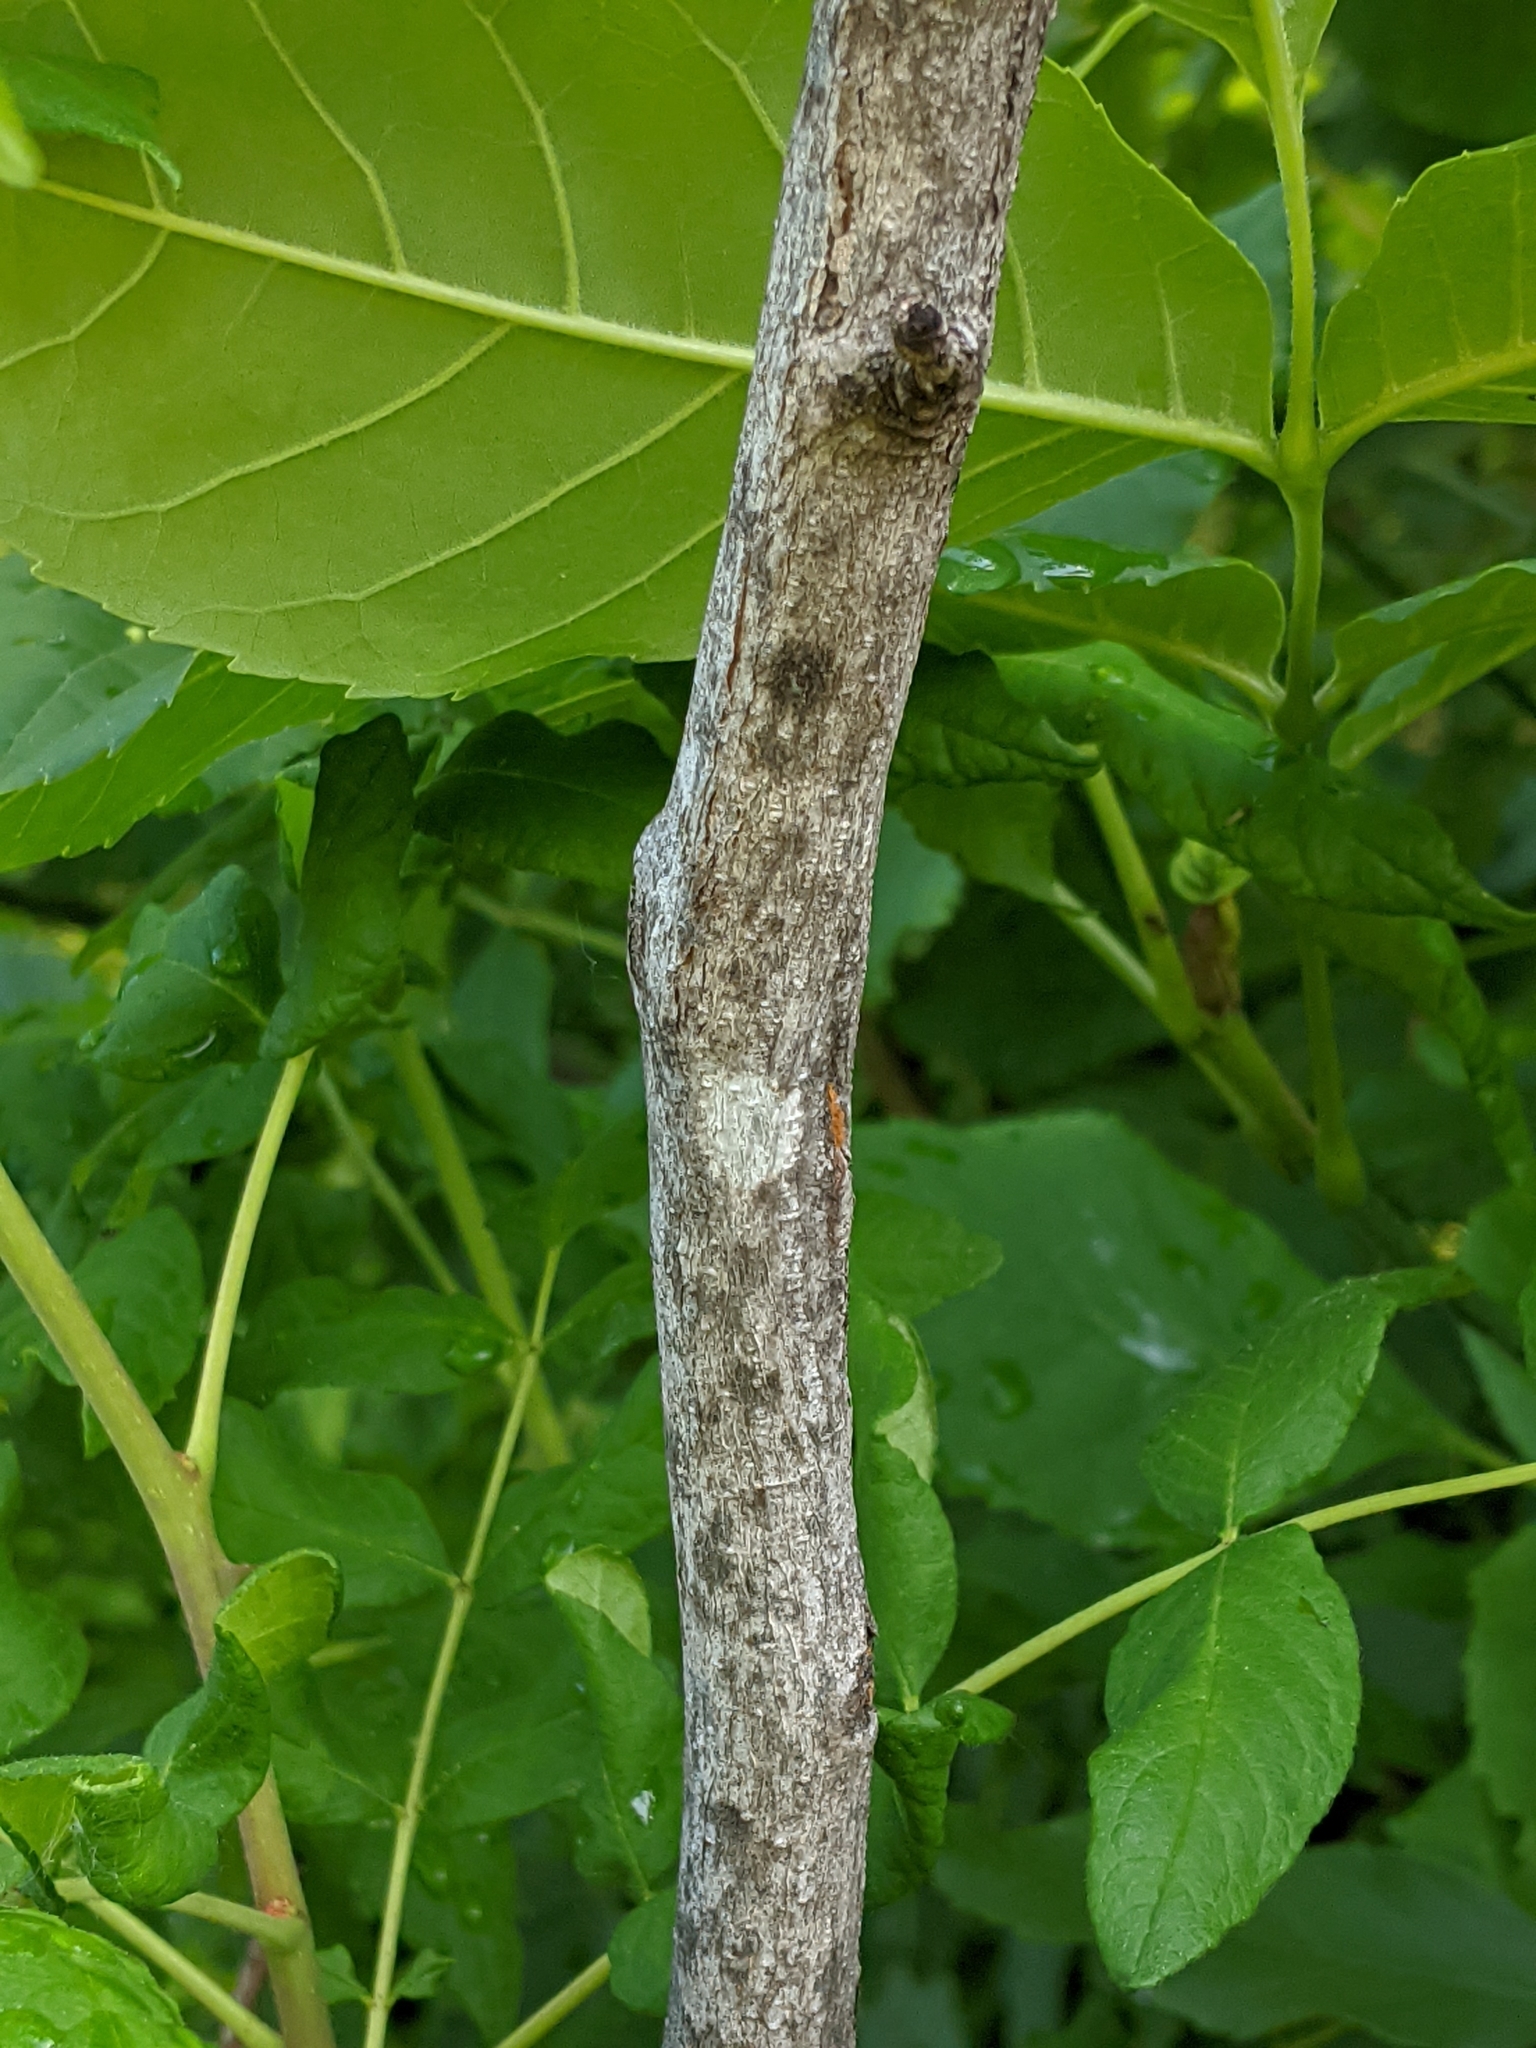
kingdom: Plantae
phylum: Tracheophyta
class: Magnoliopsida
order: Sapindales
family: Rutaceae
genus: Zanthoxylum
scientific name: Zanthoxylum americanum
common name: Northern prickly-ash
